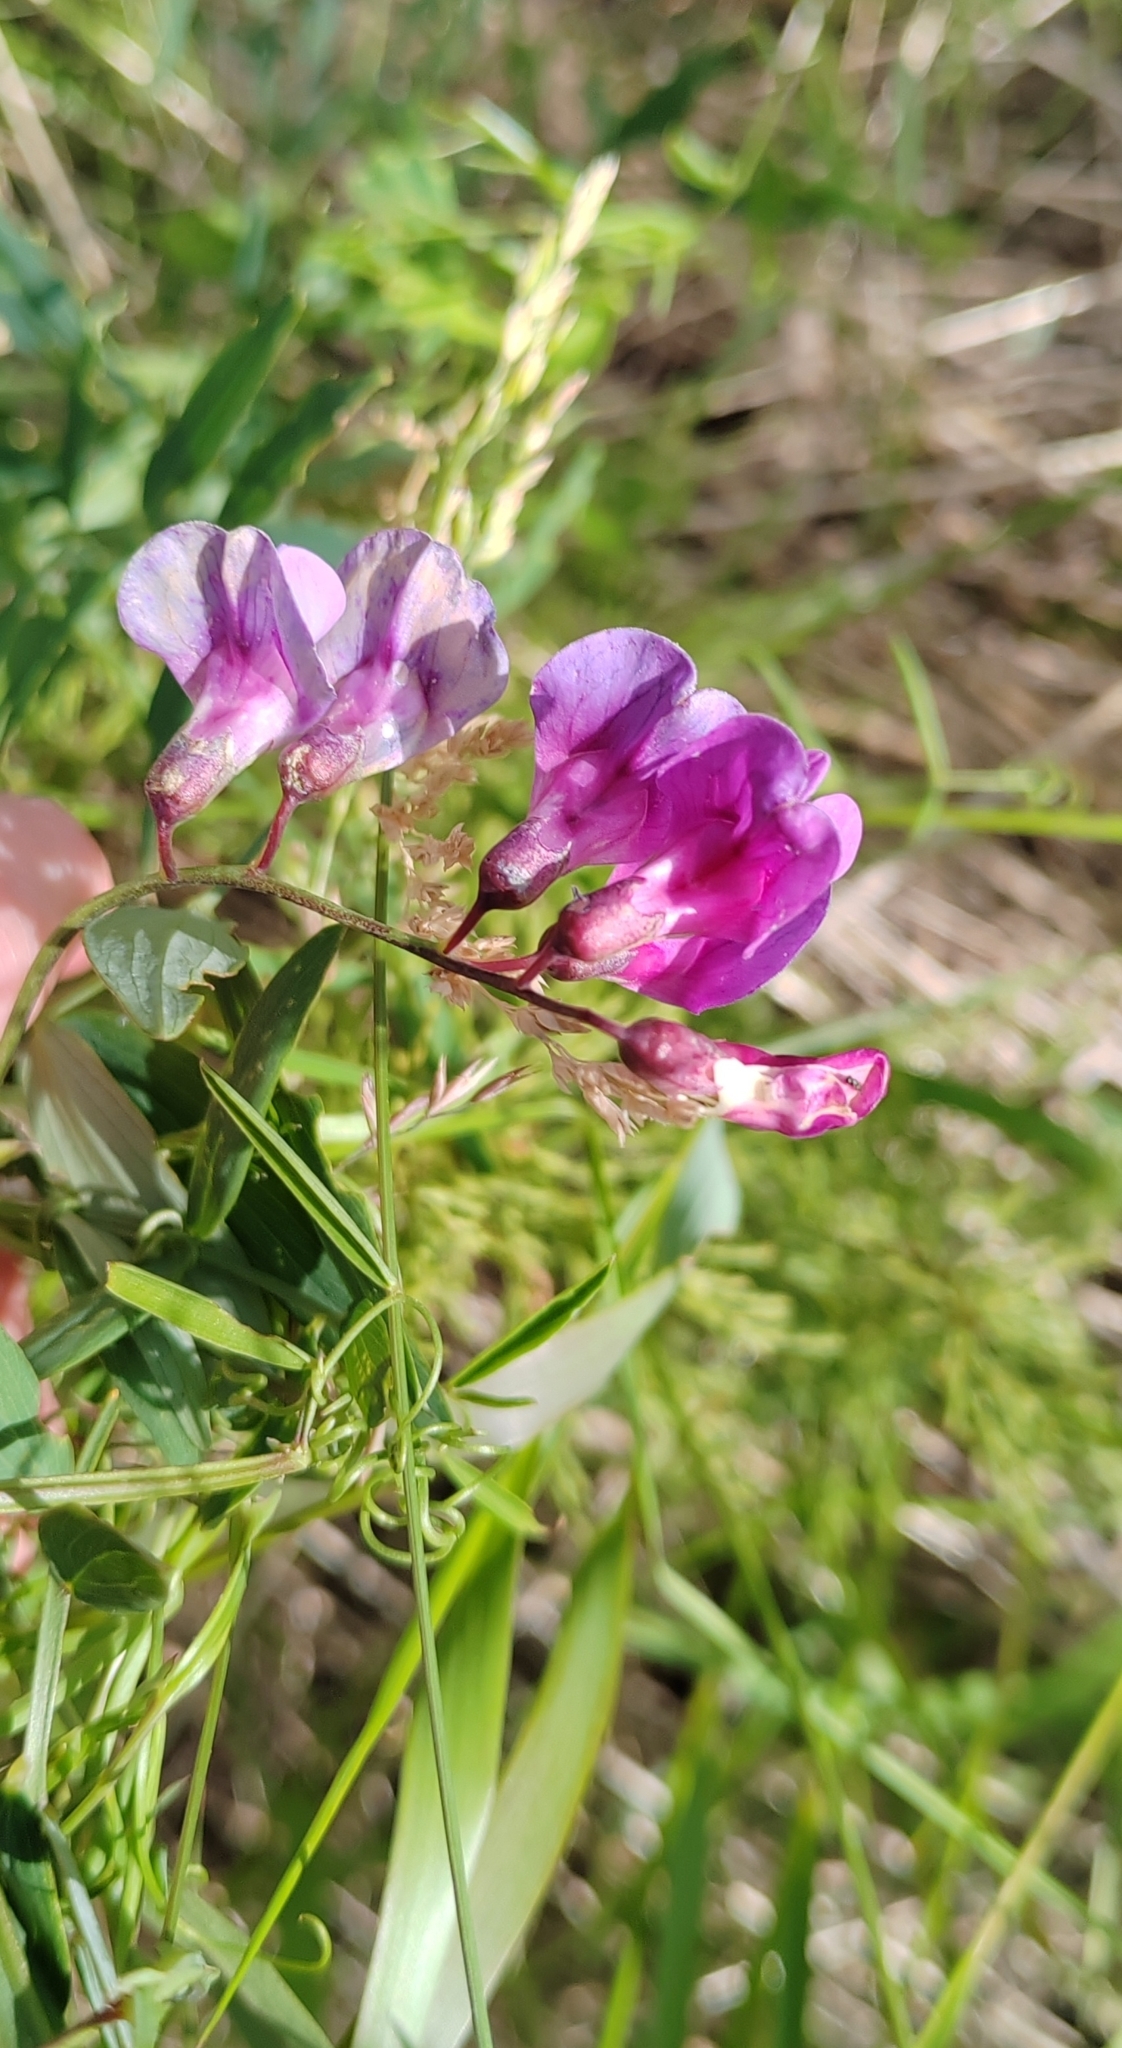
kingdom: Plantae
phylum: Tracheophyta
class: Magnoliopsida
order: Fabales
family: Fabaceae
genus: Lathyrus
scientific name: Lathyrus palustris
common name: Marsh pea
